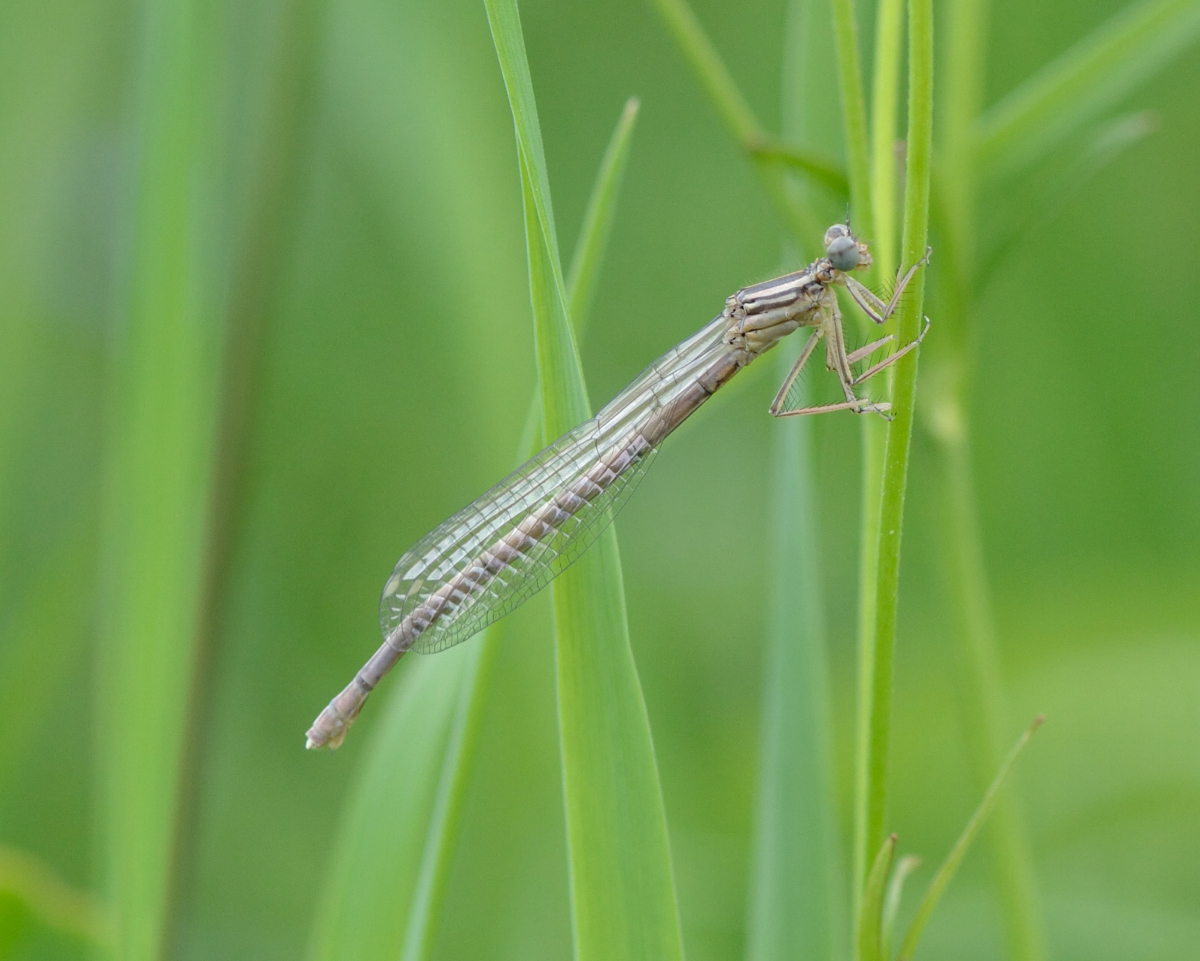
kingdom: Animalia
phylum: Arthropoda
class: Insecta
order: Odonata
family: Platycnemididae
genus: Platycnemis
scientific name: Platycnemis pennipes
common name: White-legged damselfly
